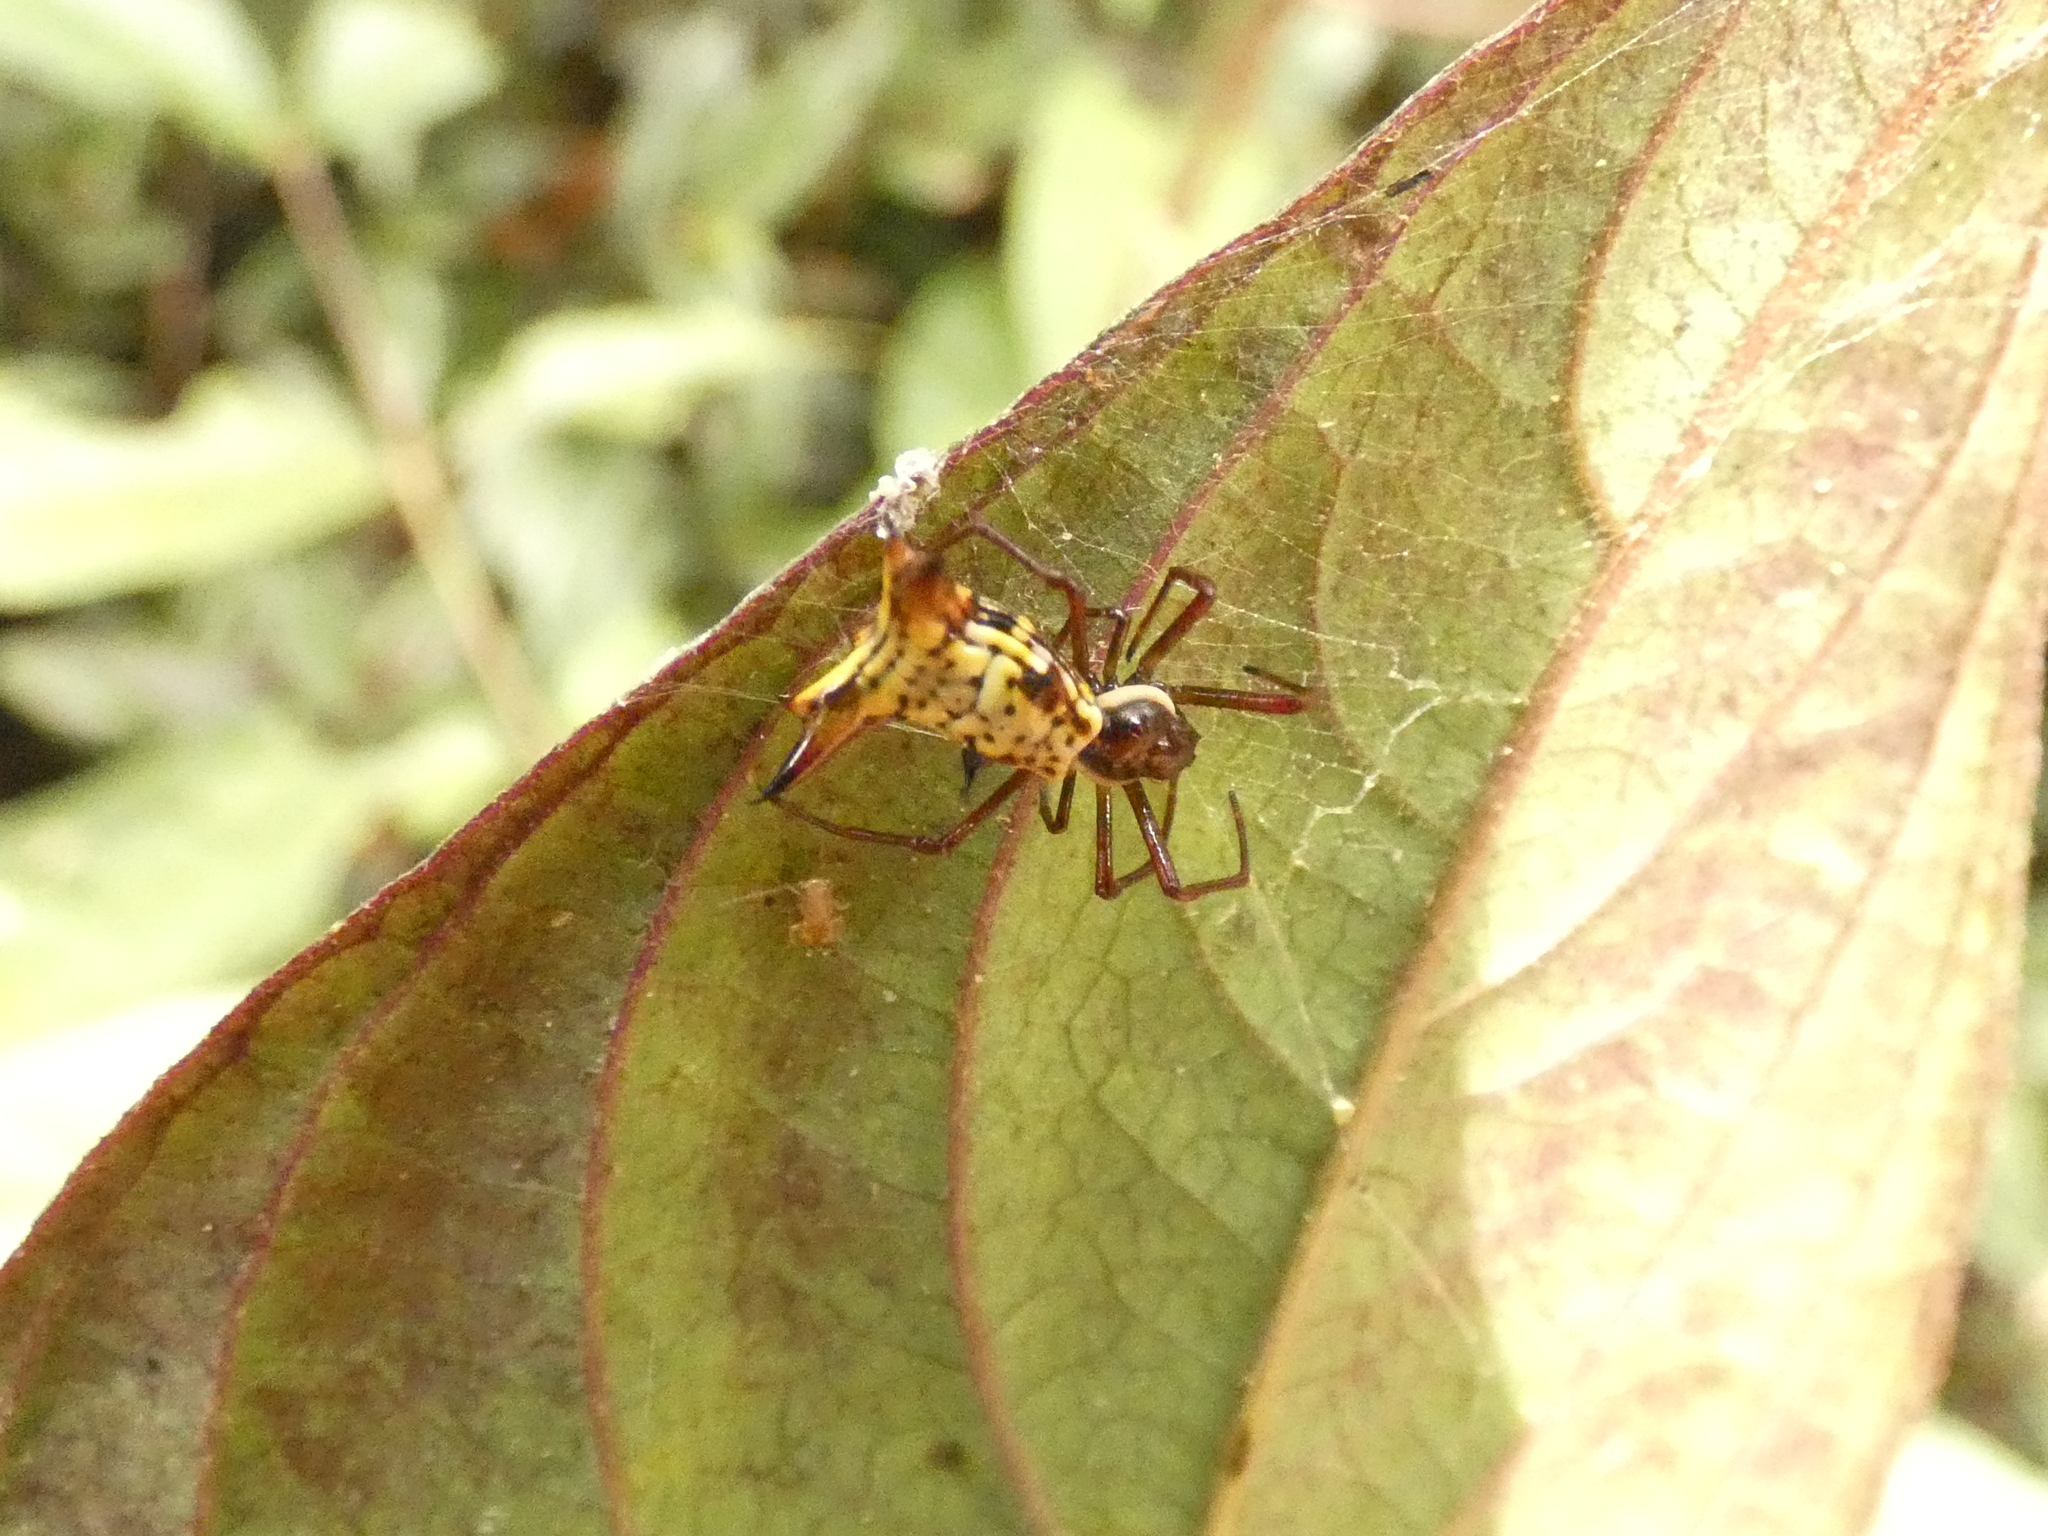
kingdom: Animalia
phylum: Arthropoda
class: Arachnida
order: Araneae
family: Araneidae
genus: Micrathena
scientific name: Micrathena fissispina
